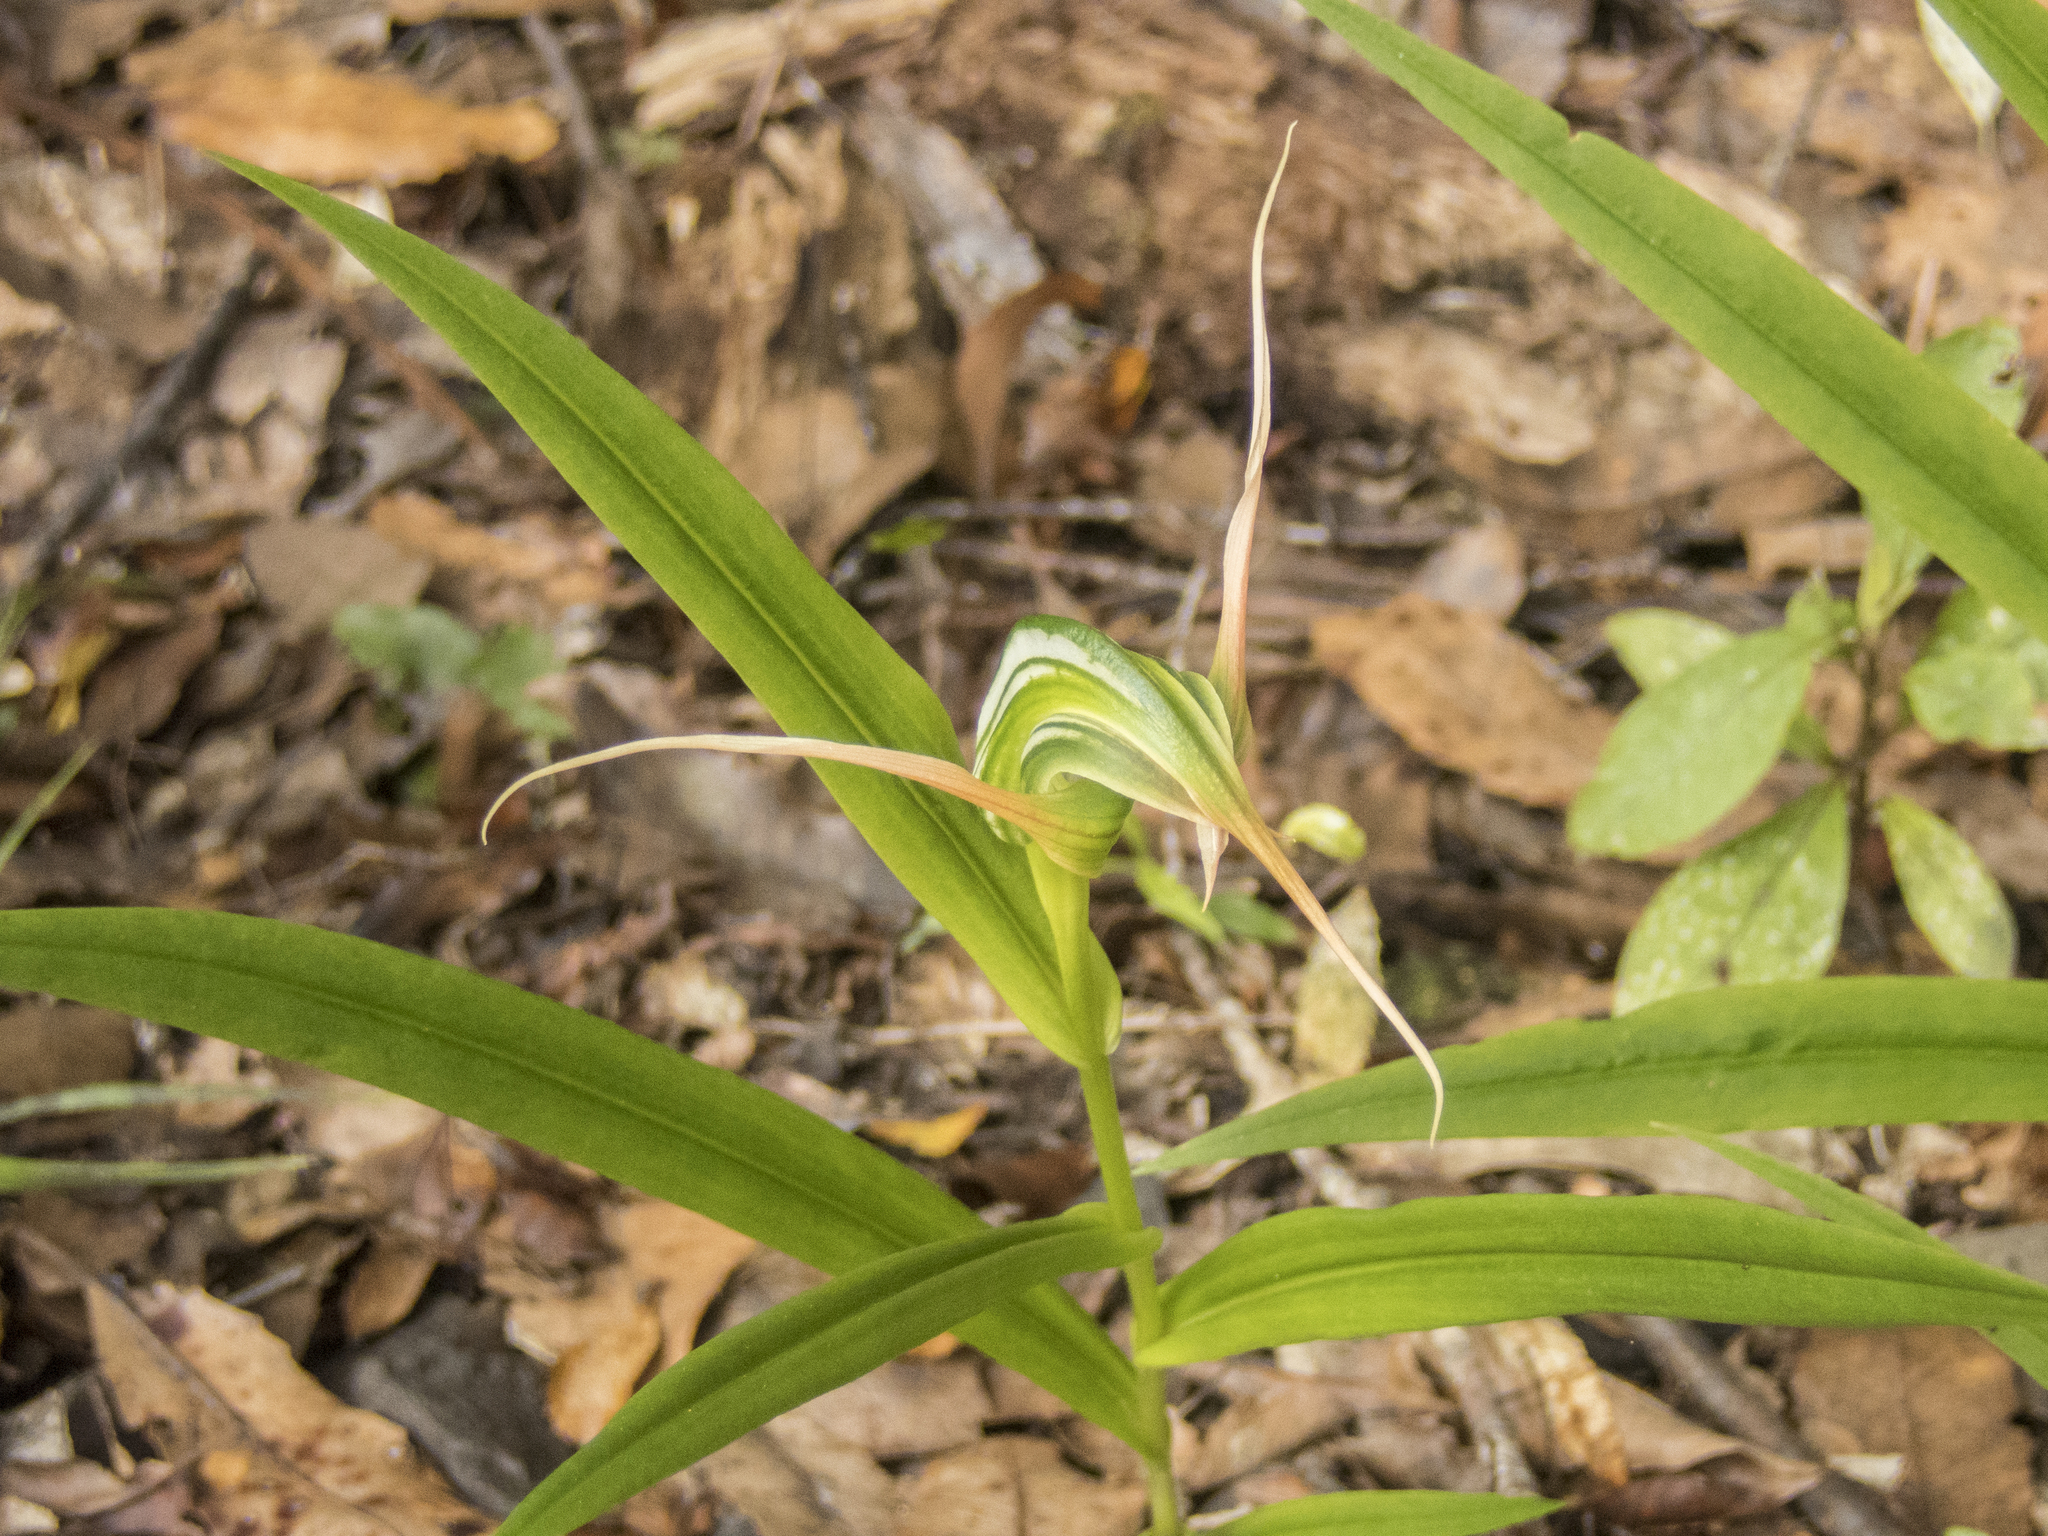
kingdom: Plantae
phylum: Tracheophyta
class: Liliopsida
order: Asparagales
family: Orchidaceae
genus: Pterostylis
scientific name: Pterostylis banksii
